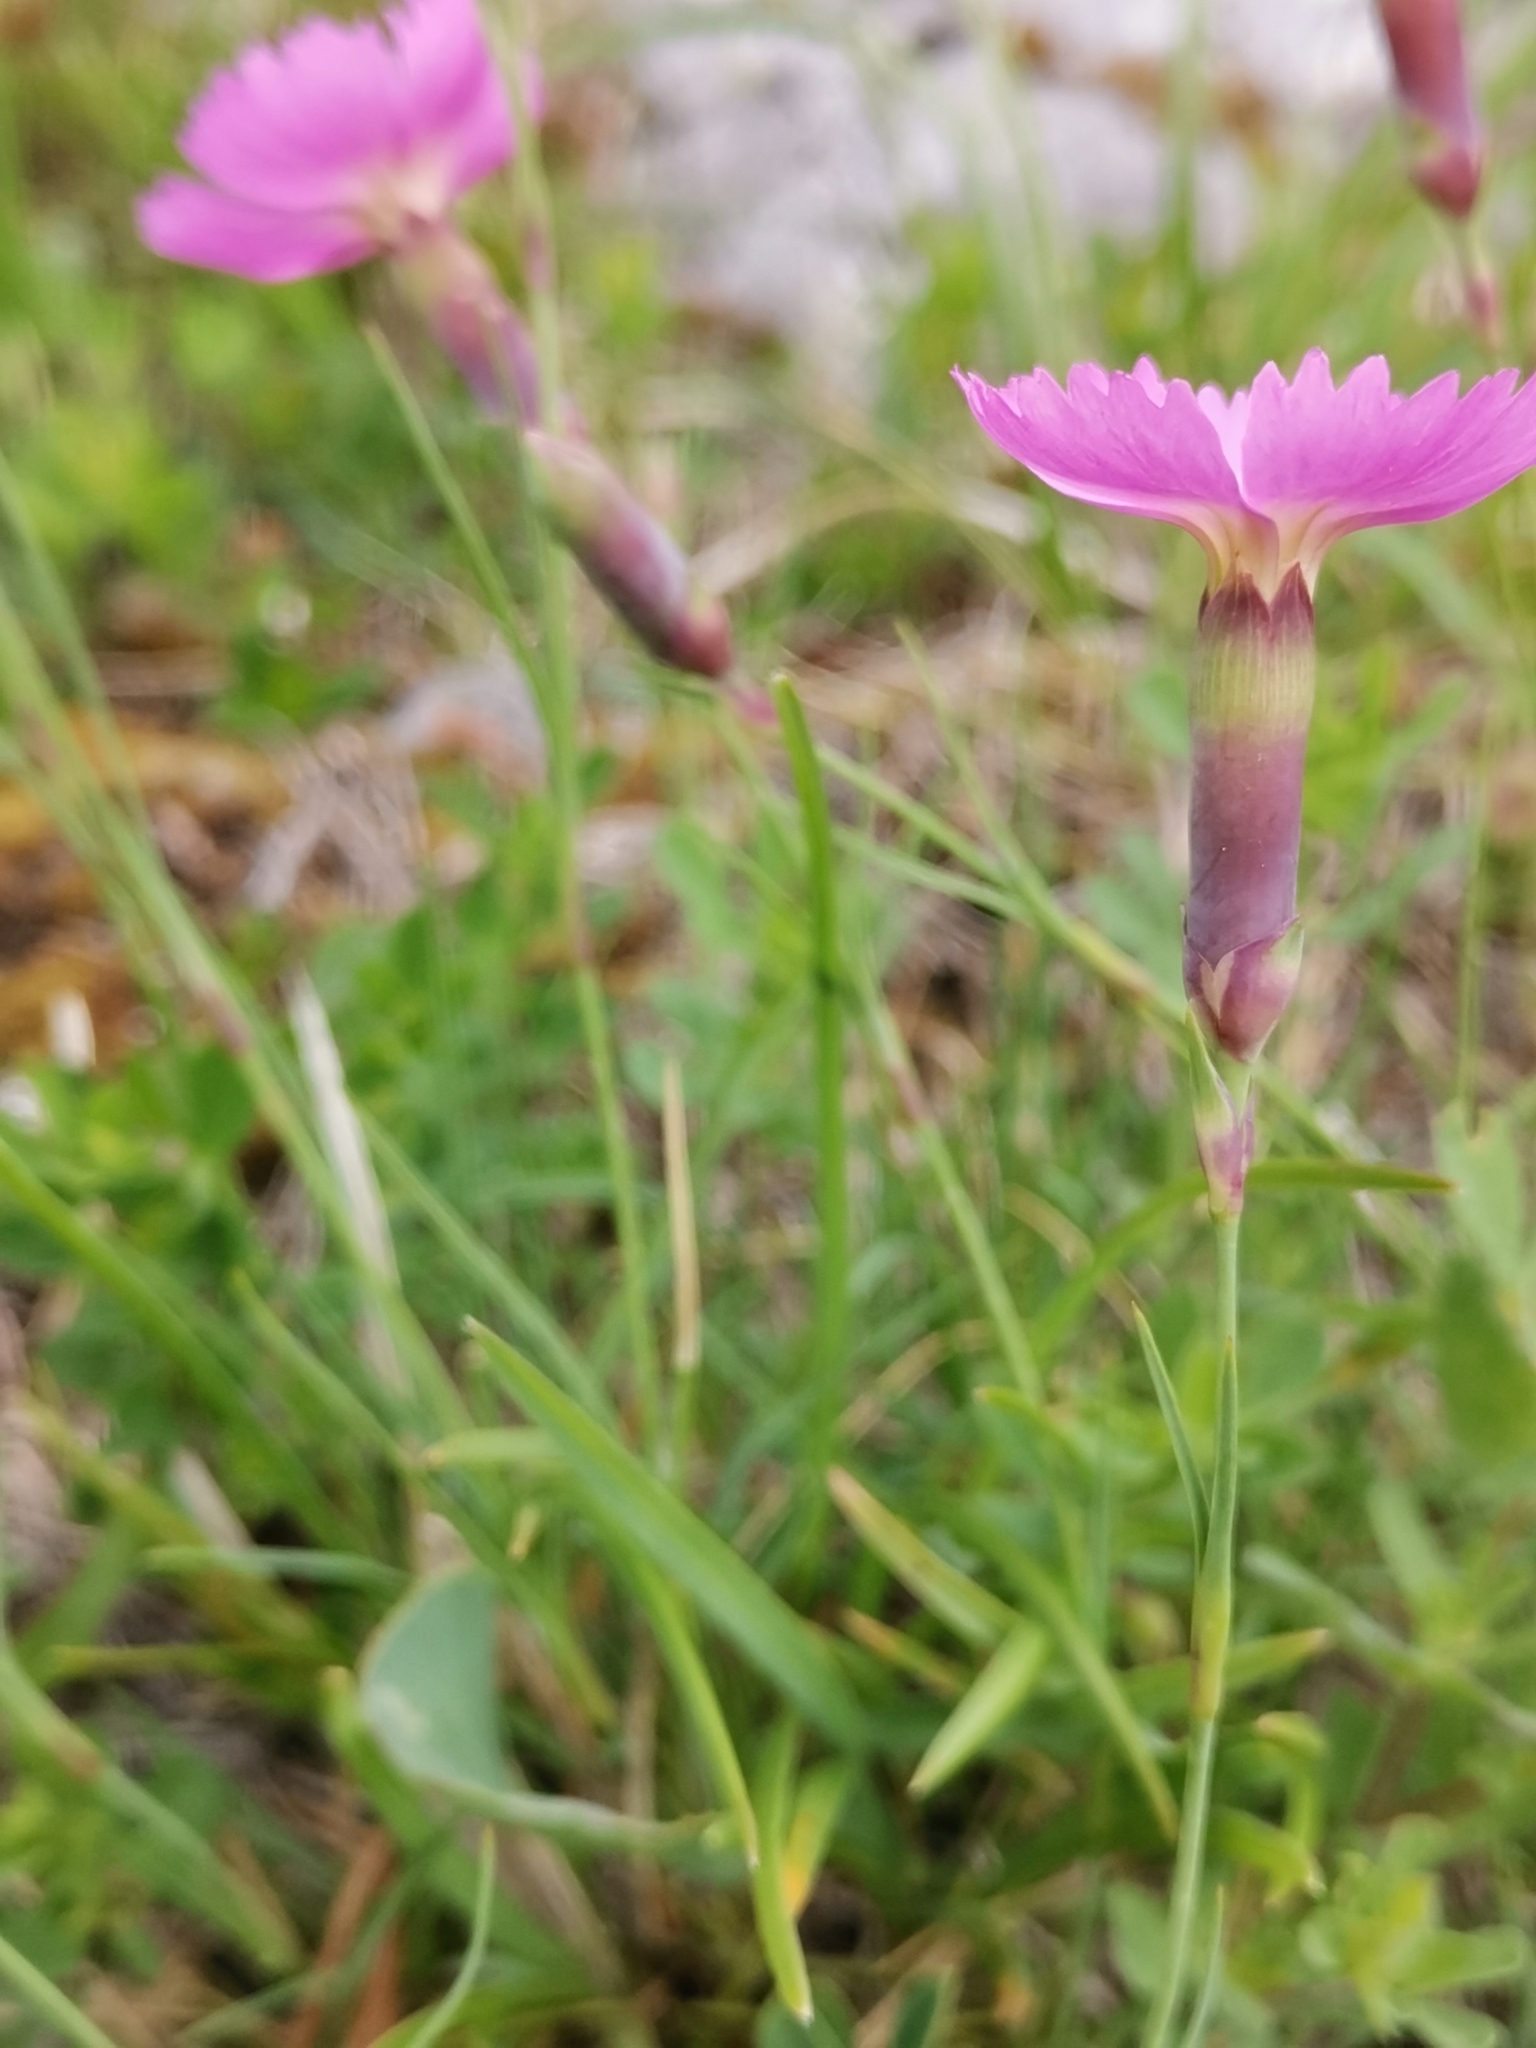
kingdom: Plantae
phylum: Tracheophyta
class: Magnoliopsida
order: Caryophyllales
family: Caryophyllaceae
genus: Dianthus
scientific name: Dianthus sylvestris
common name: Wood pink
